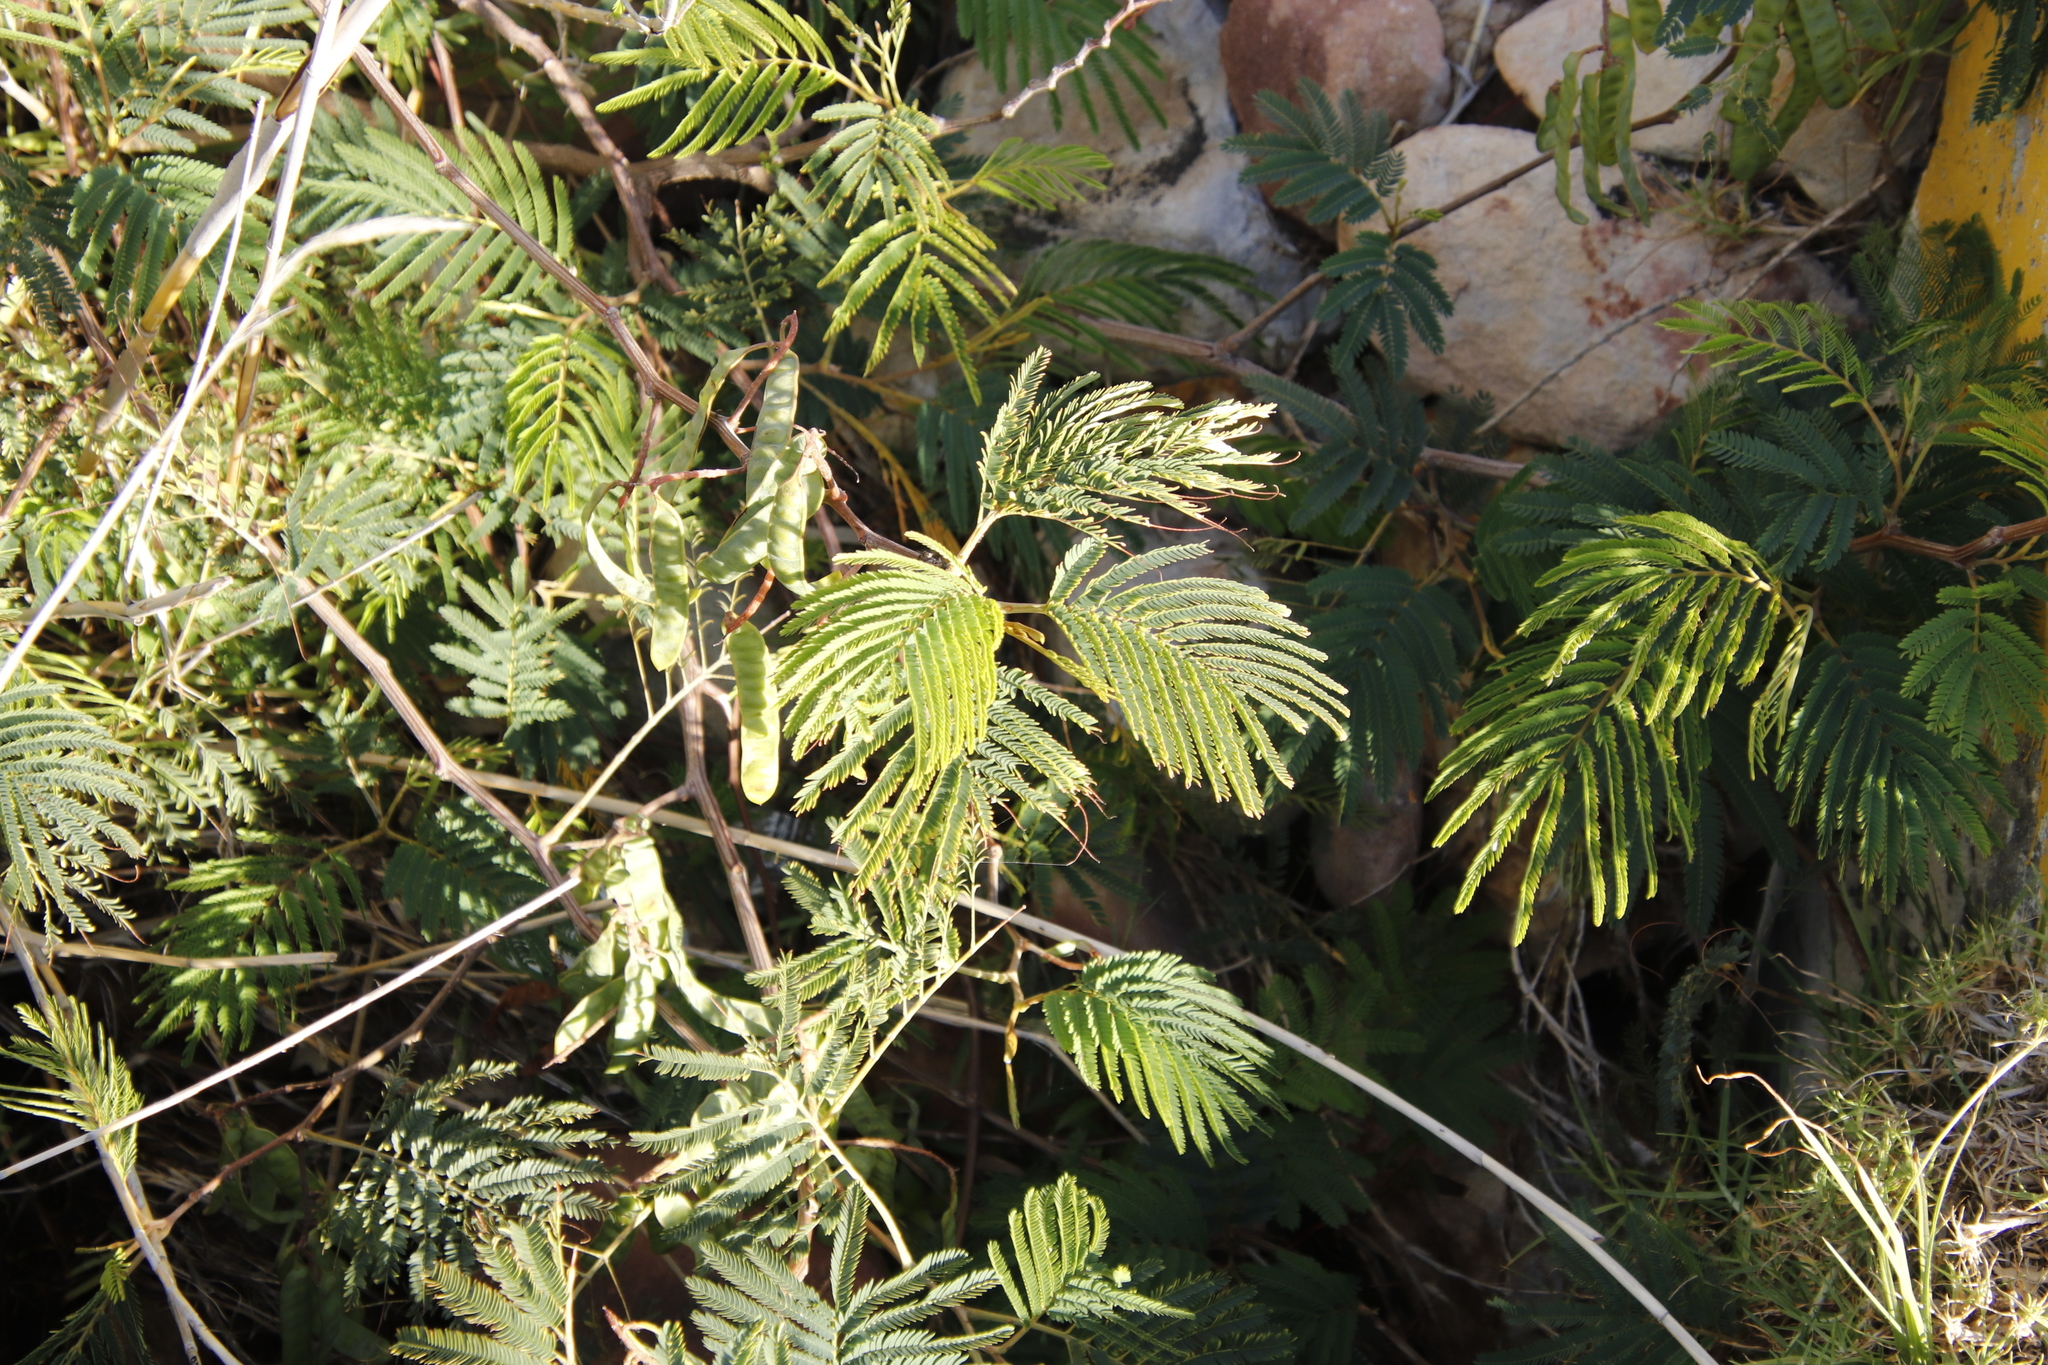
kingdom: Plantae
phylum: Tracheophyta
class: Magnoliopsida
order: Fabales
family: Fabaceae
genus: Paraserianthes
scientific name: Paraserianthes lophantha
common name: Plume albizia
